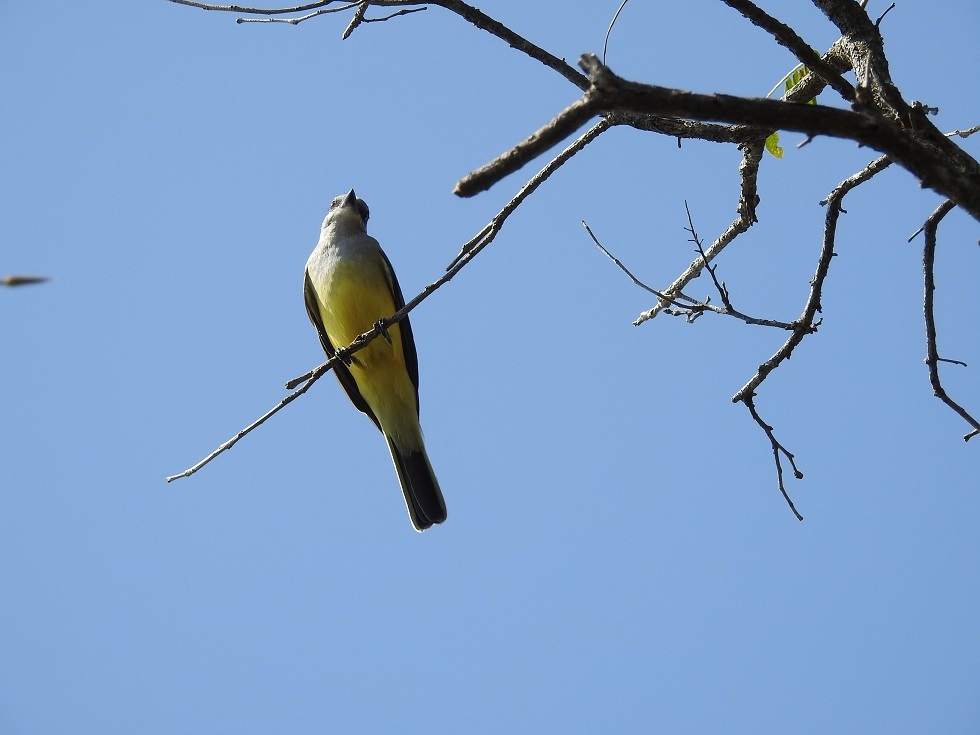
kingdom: Animalia
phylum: Chordata
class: Aves
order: Passeriformes
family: Tyrannidae
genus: Tyrannus
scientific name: Tyrannus verticalis
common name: Western kingbird
